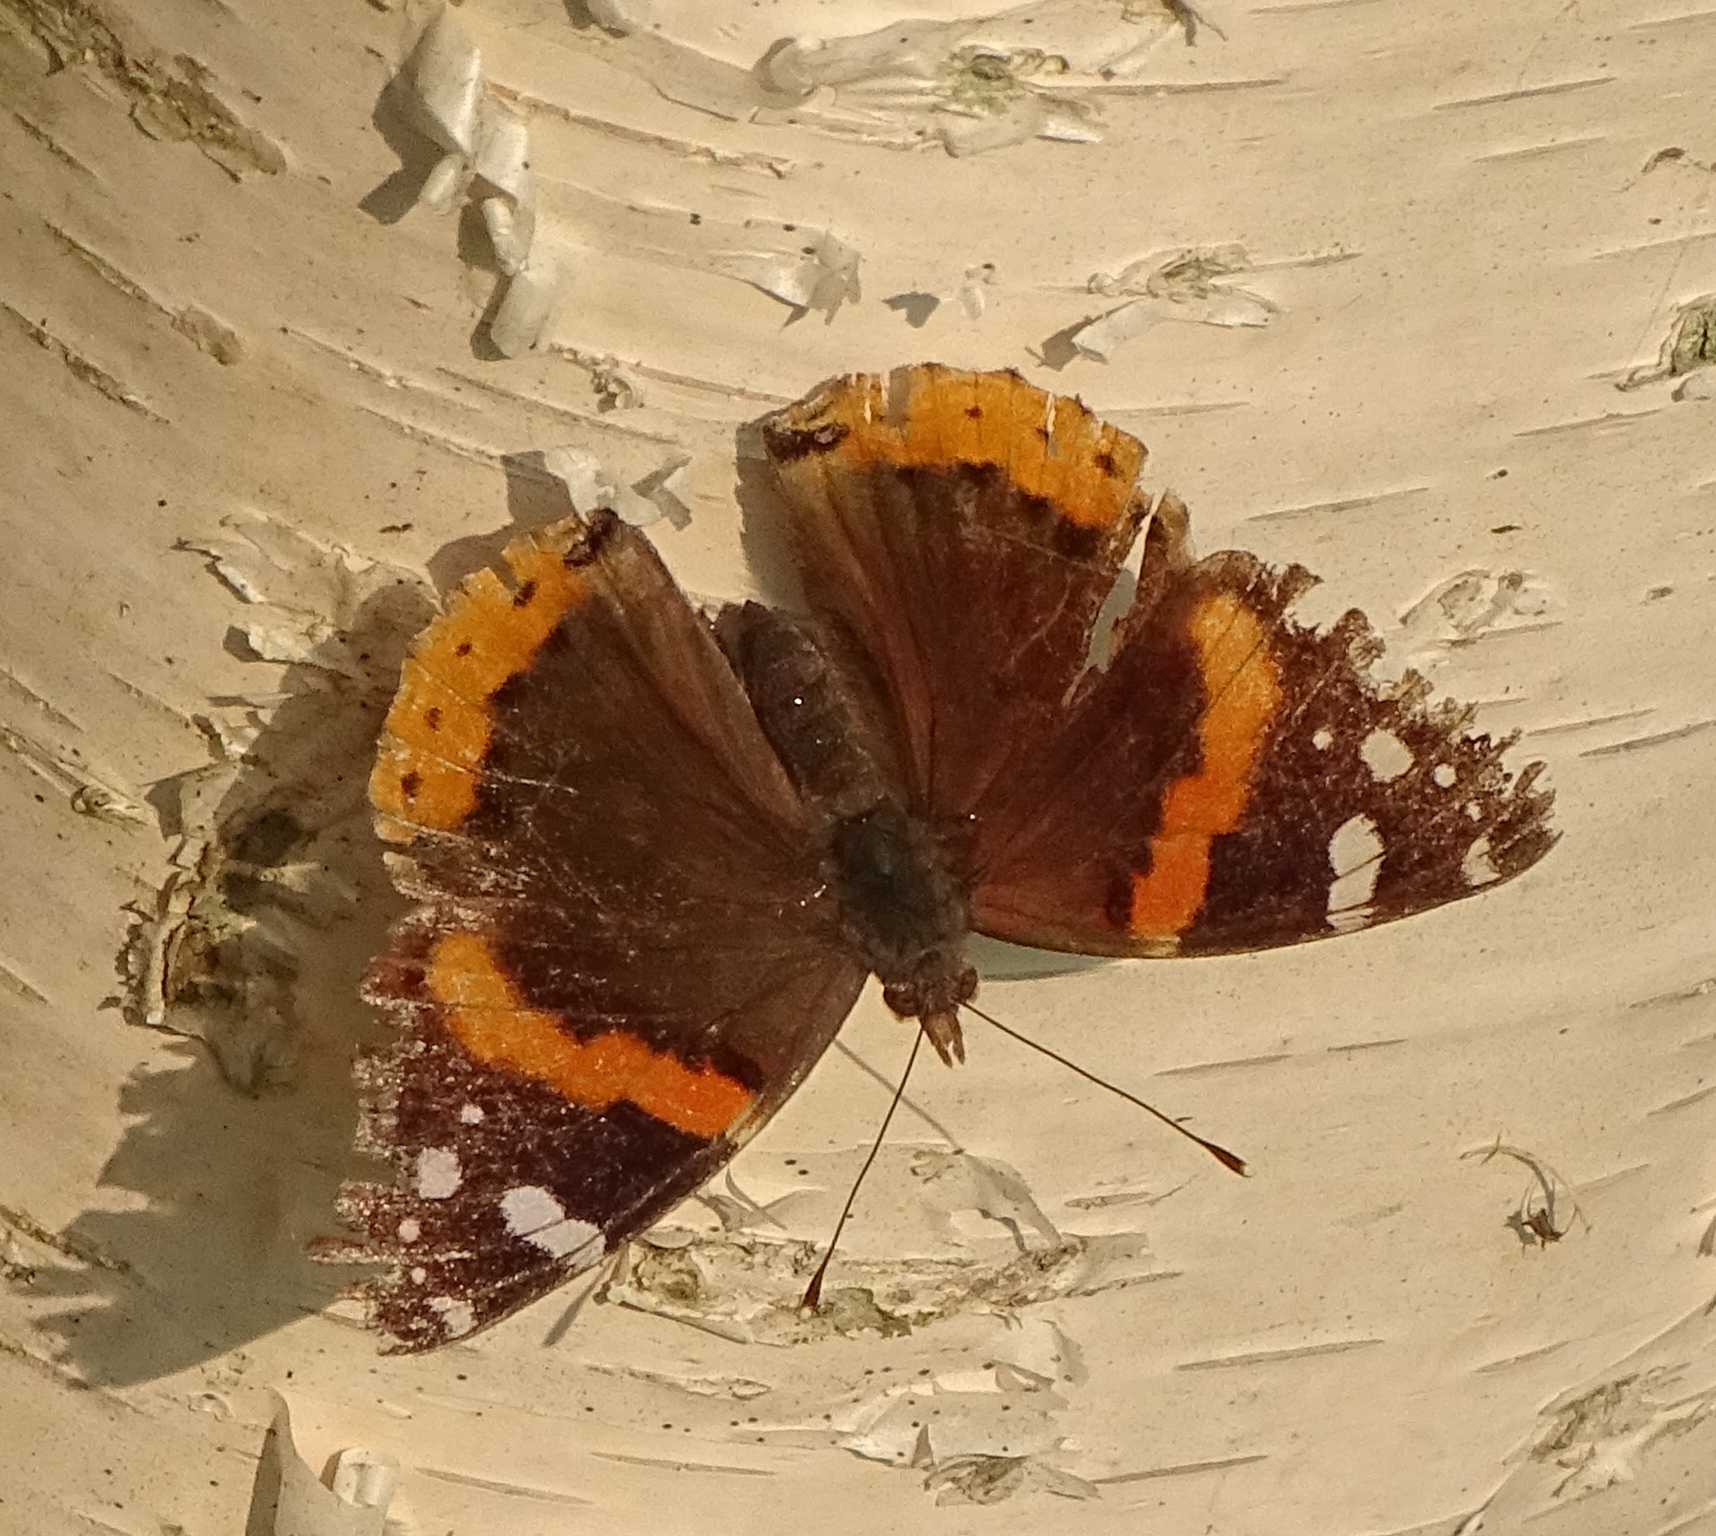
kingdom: Animalia
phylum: Arthropoda
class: Insecta
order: Lepidoptera
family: Nymphalidae
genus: Vanessa
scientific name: Vanessa atalanta
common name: Red admiral
